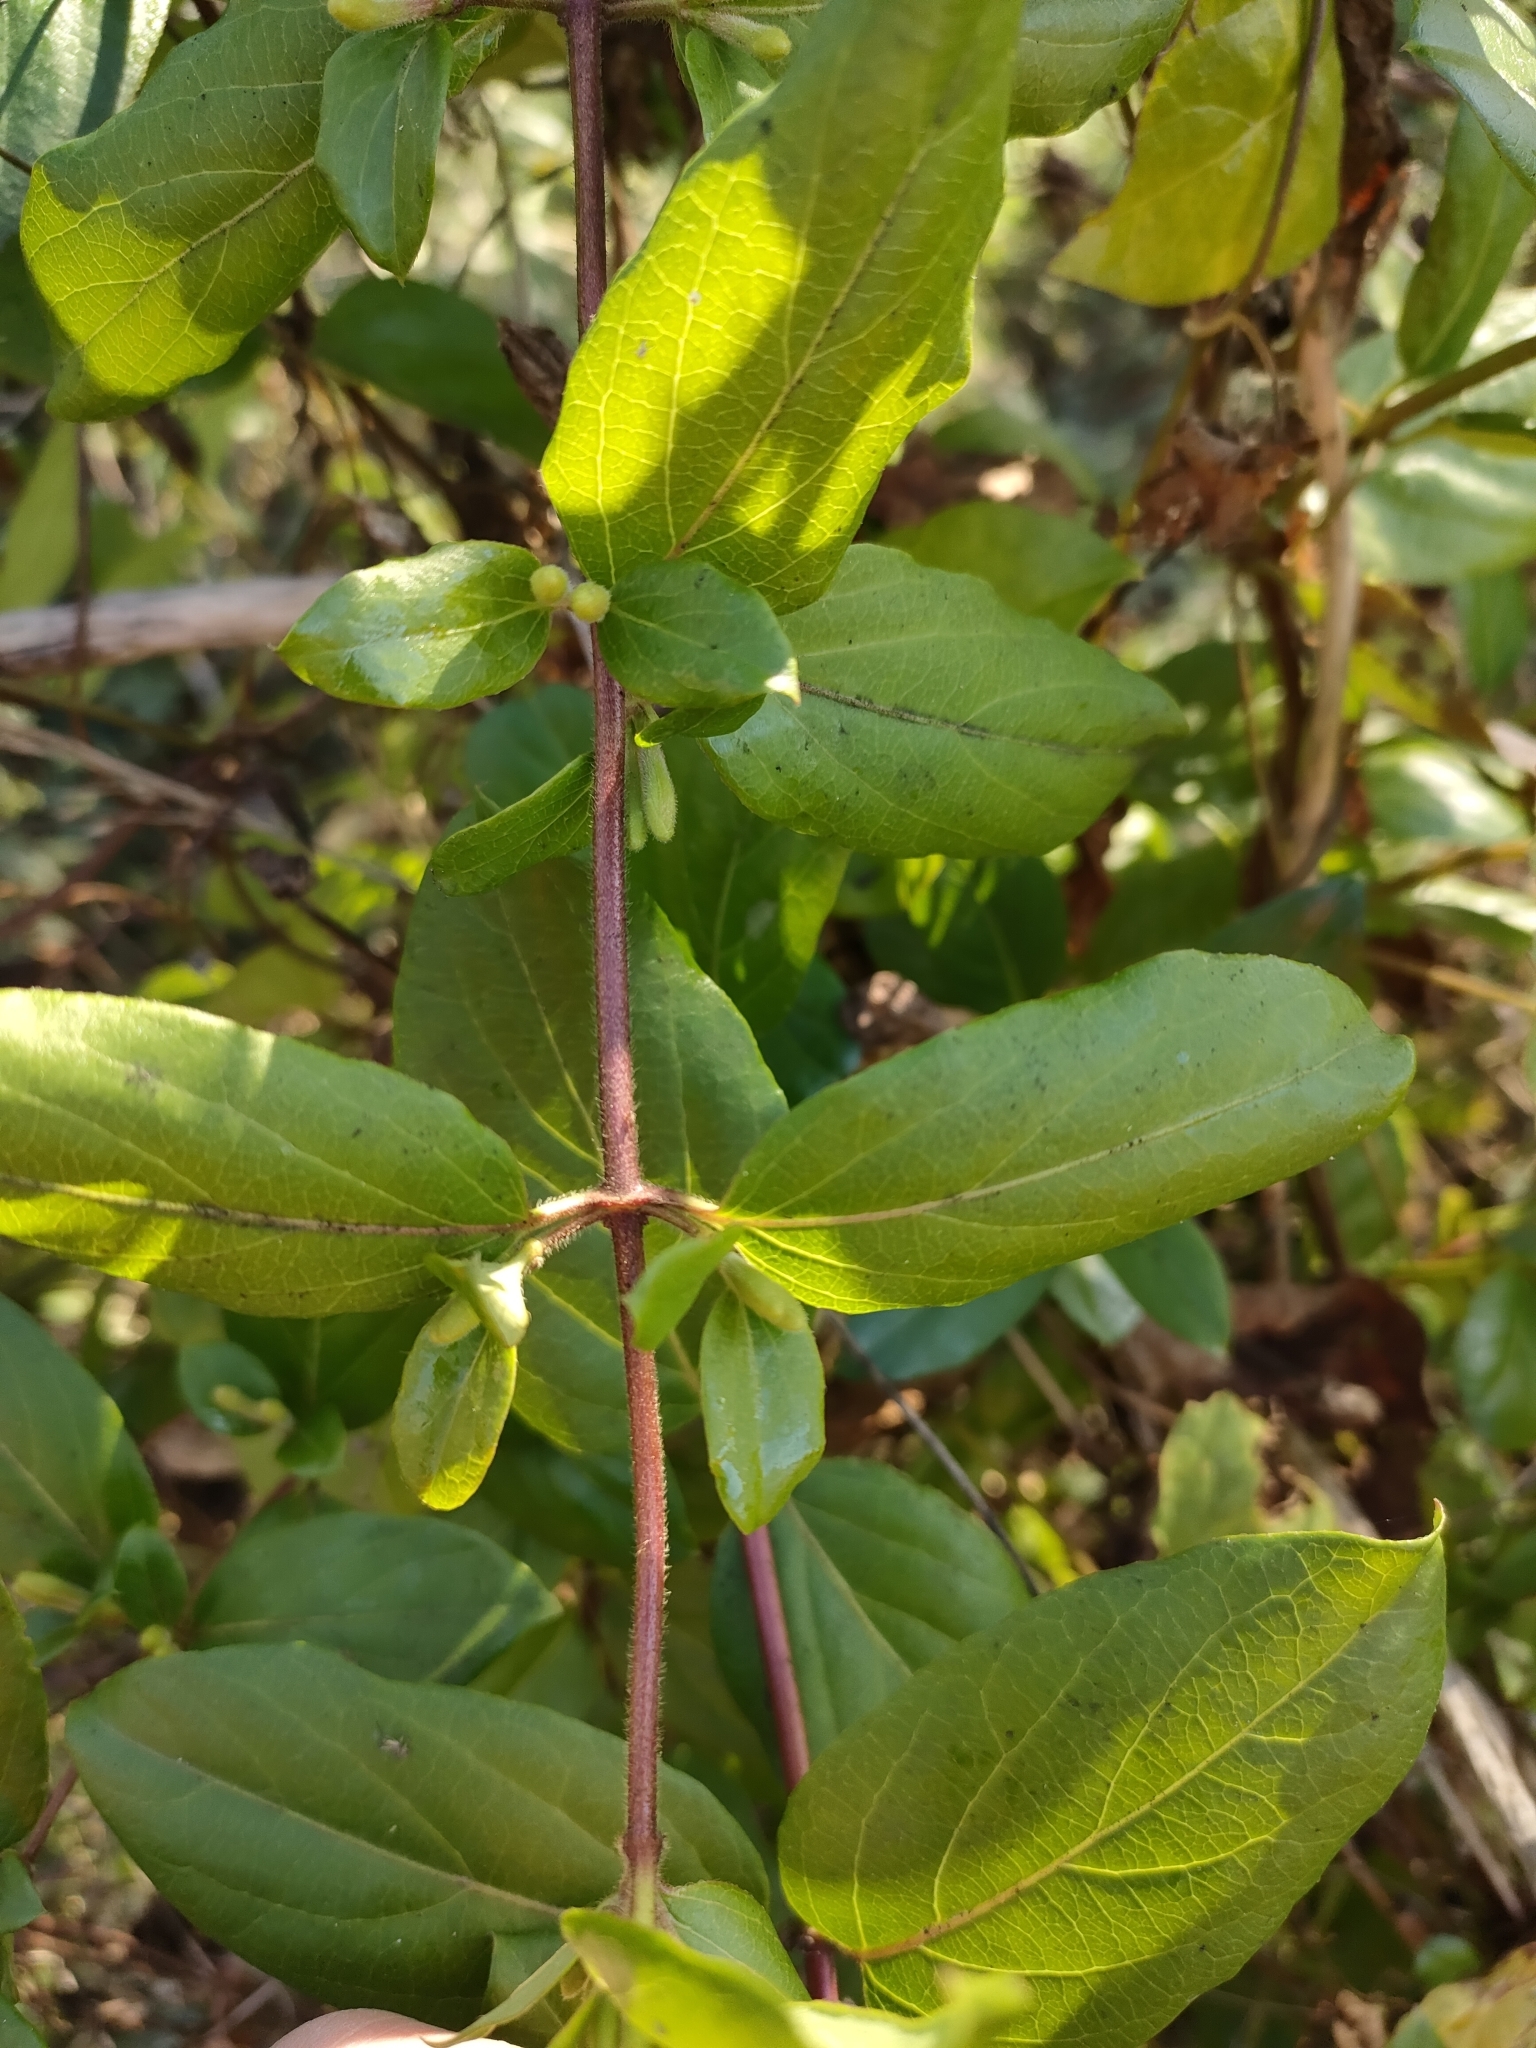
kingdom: Plantae
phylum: Tracheophyta
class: Magnoliopsida
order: Dipsacales
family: Caprifoliaceae
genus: Lonicera
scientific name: Lonicera japonica
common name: Japanese honeysuckle
